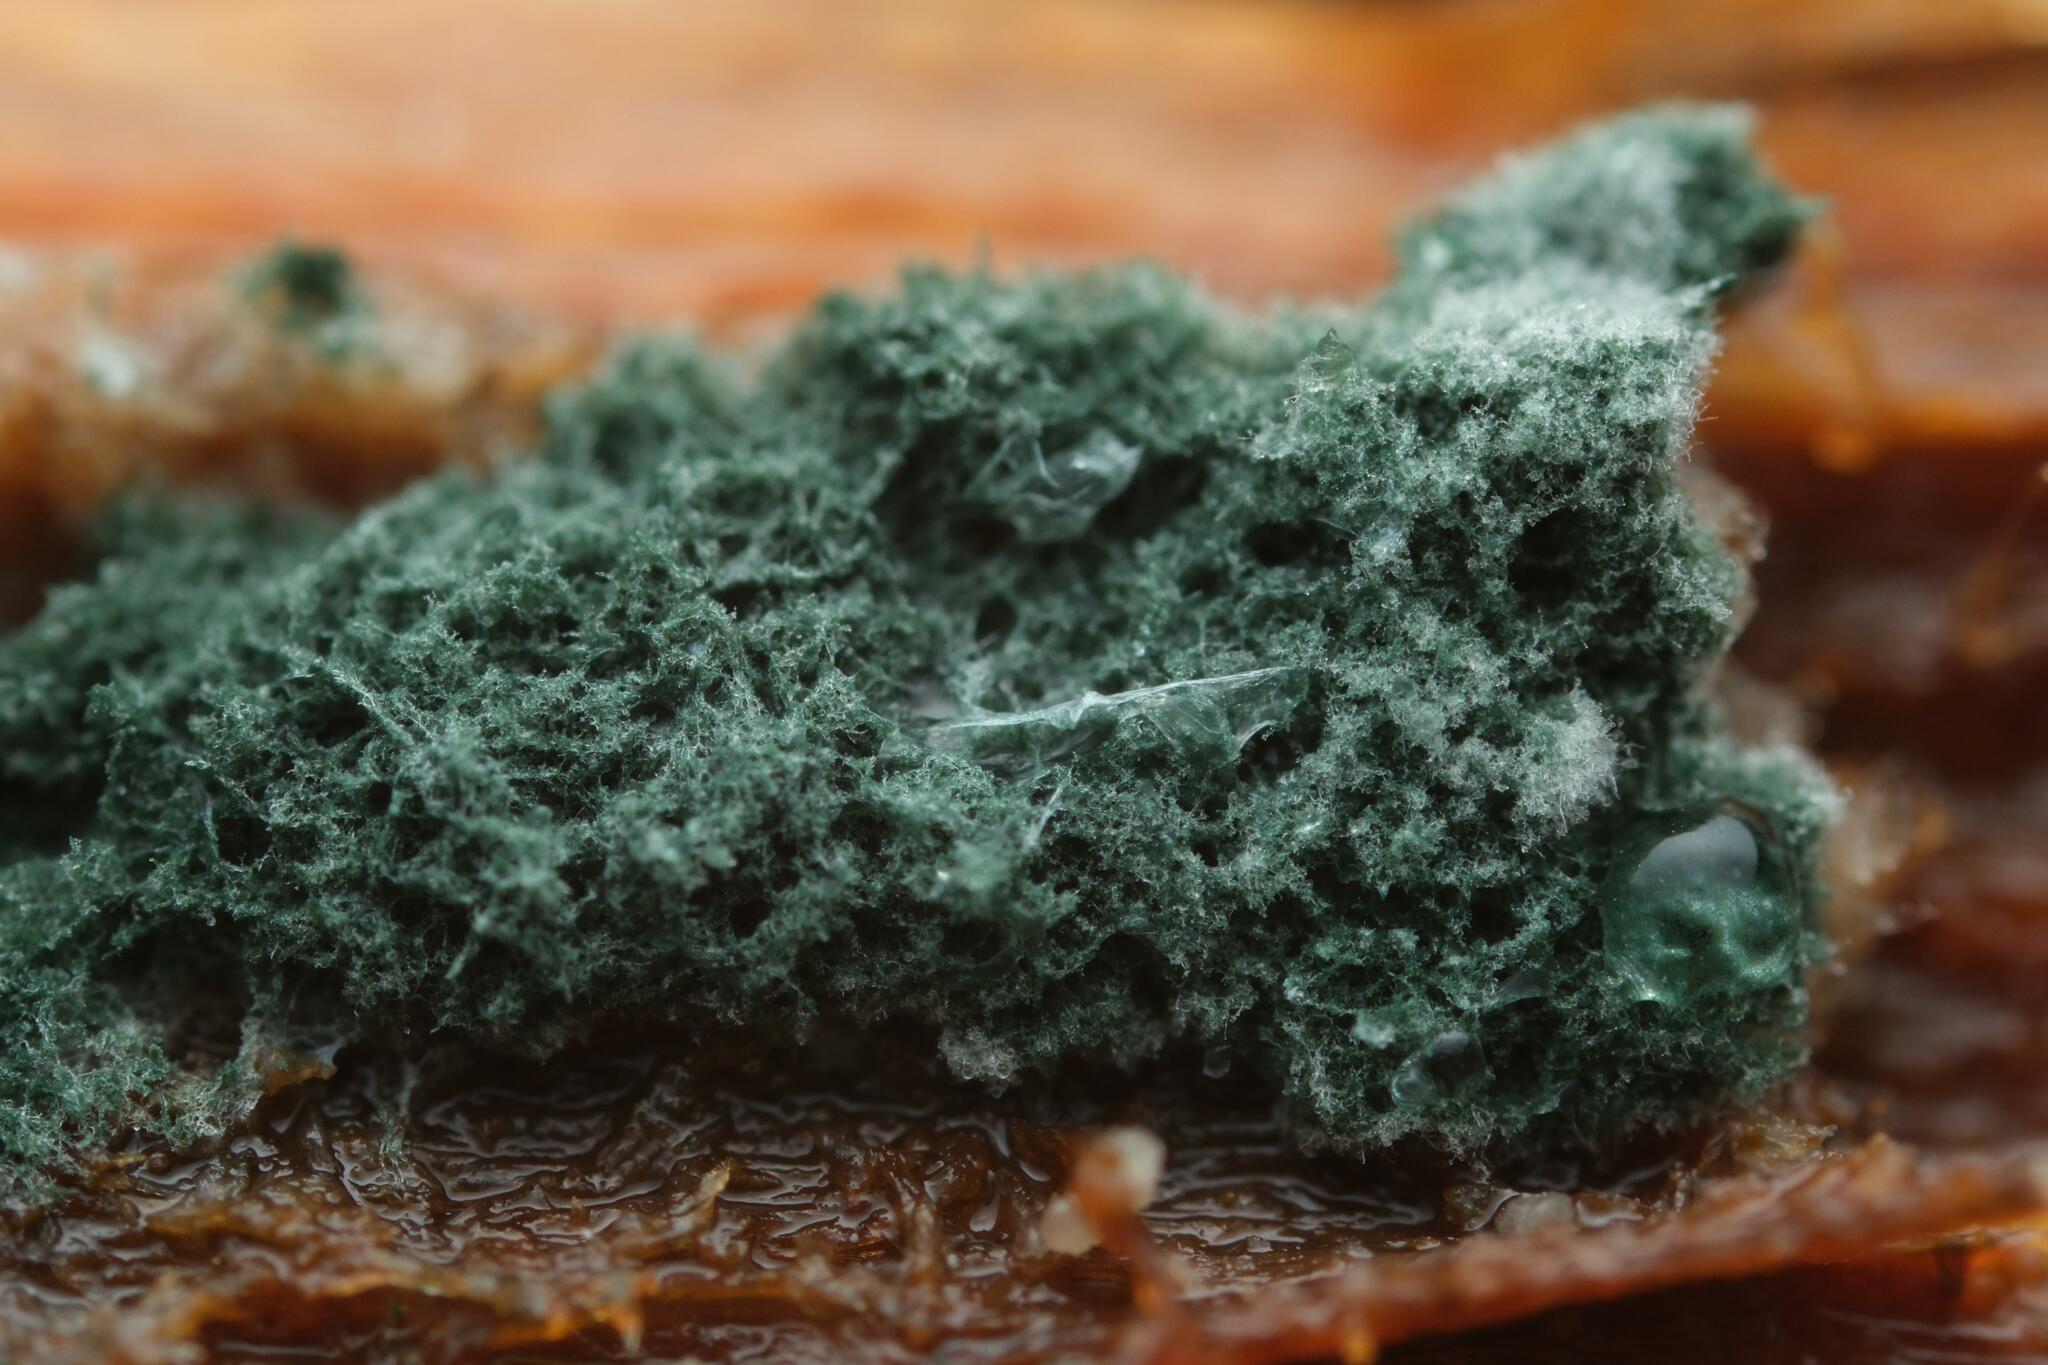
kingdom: Fungi
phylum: Ascomycota
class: Sordariomycetes
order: Hypocreales
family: Hypocreaceae
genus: Trichoderma
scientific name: Trichoderma viride
